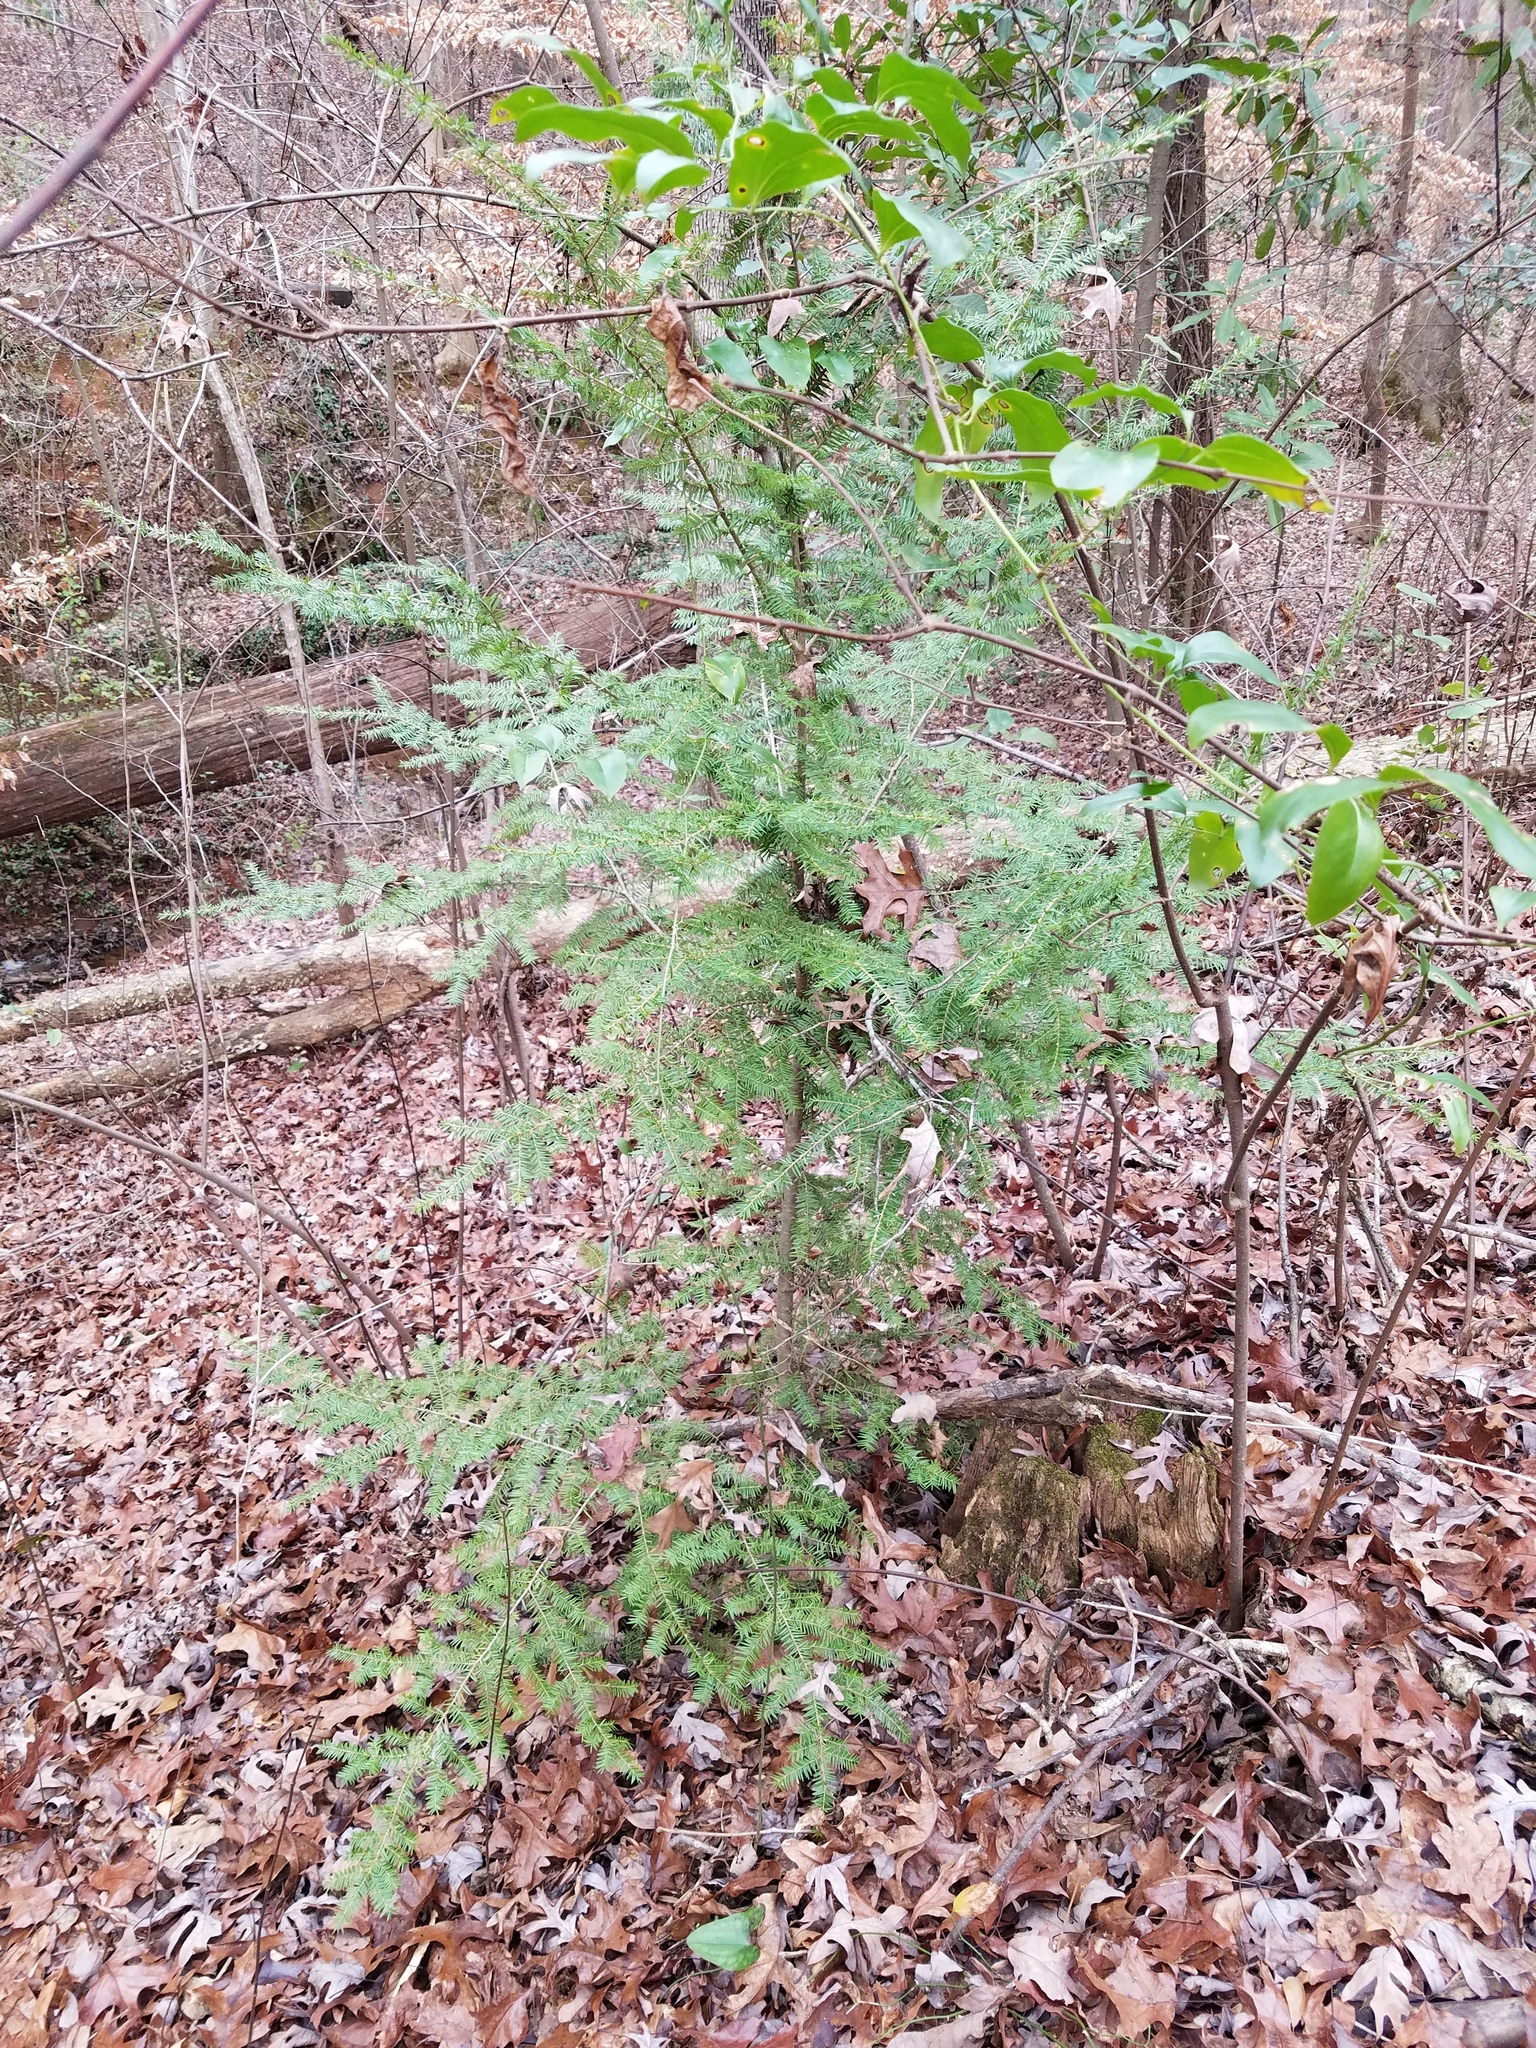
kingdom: Plantae
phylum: Tracheophyta
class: Pinopsida
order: Pinales
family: Pinaceae
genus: Tsuga
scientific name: Tsuga canadensis
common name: Eastern hemlock
